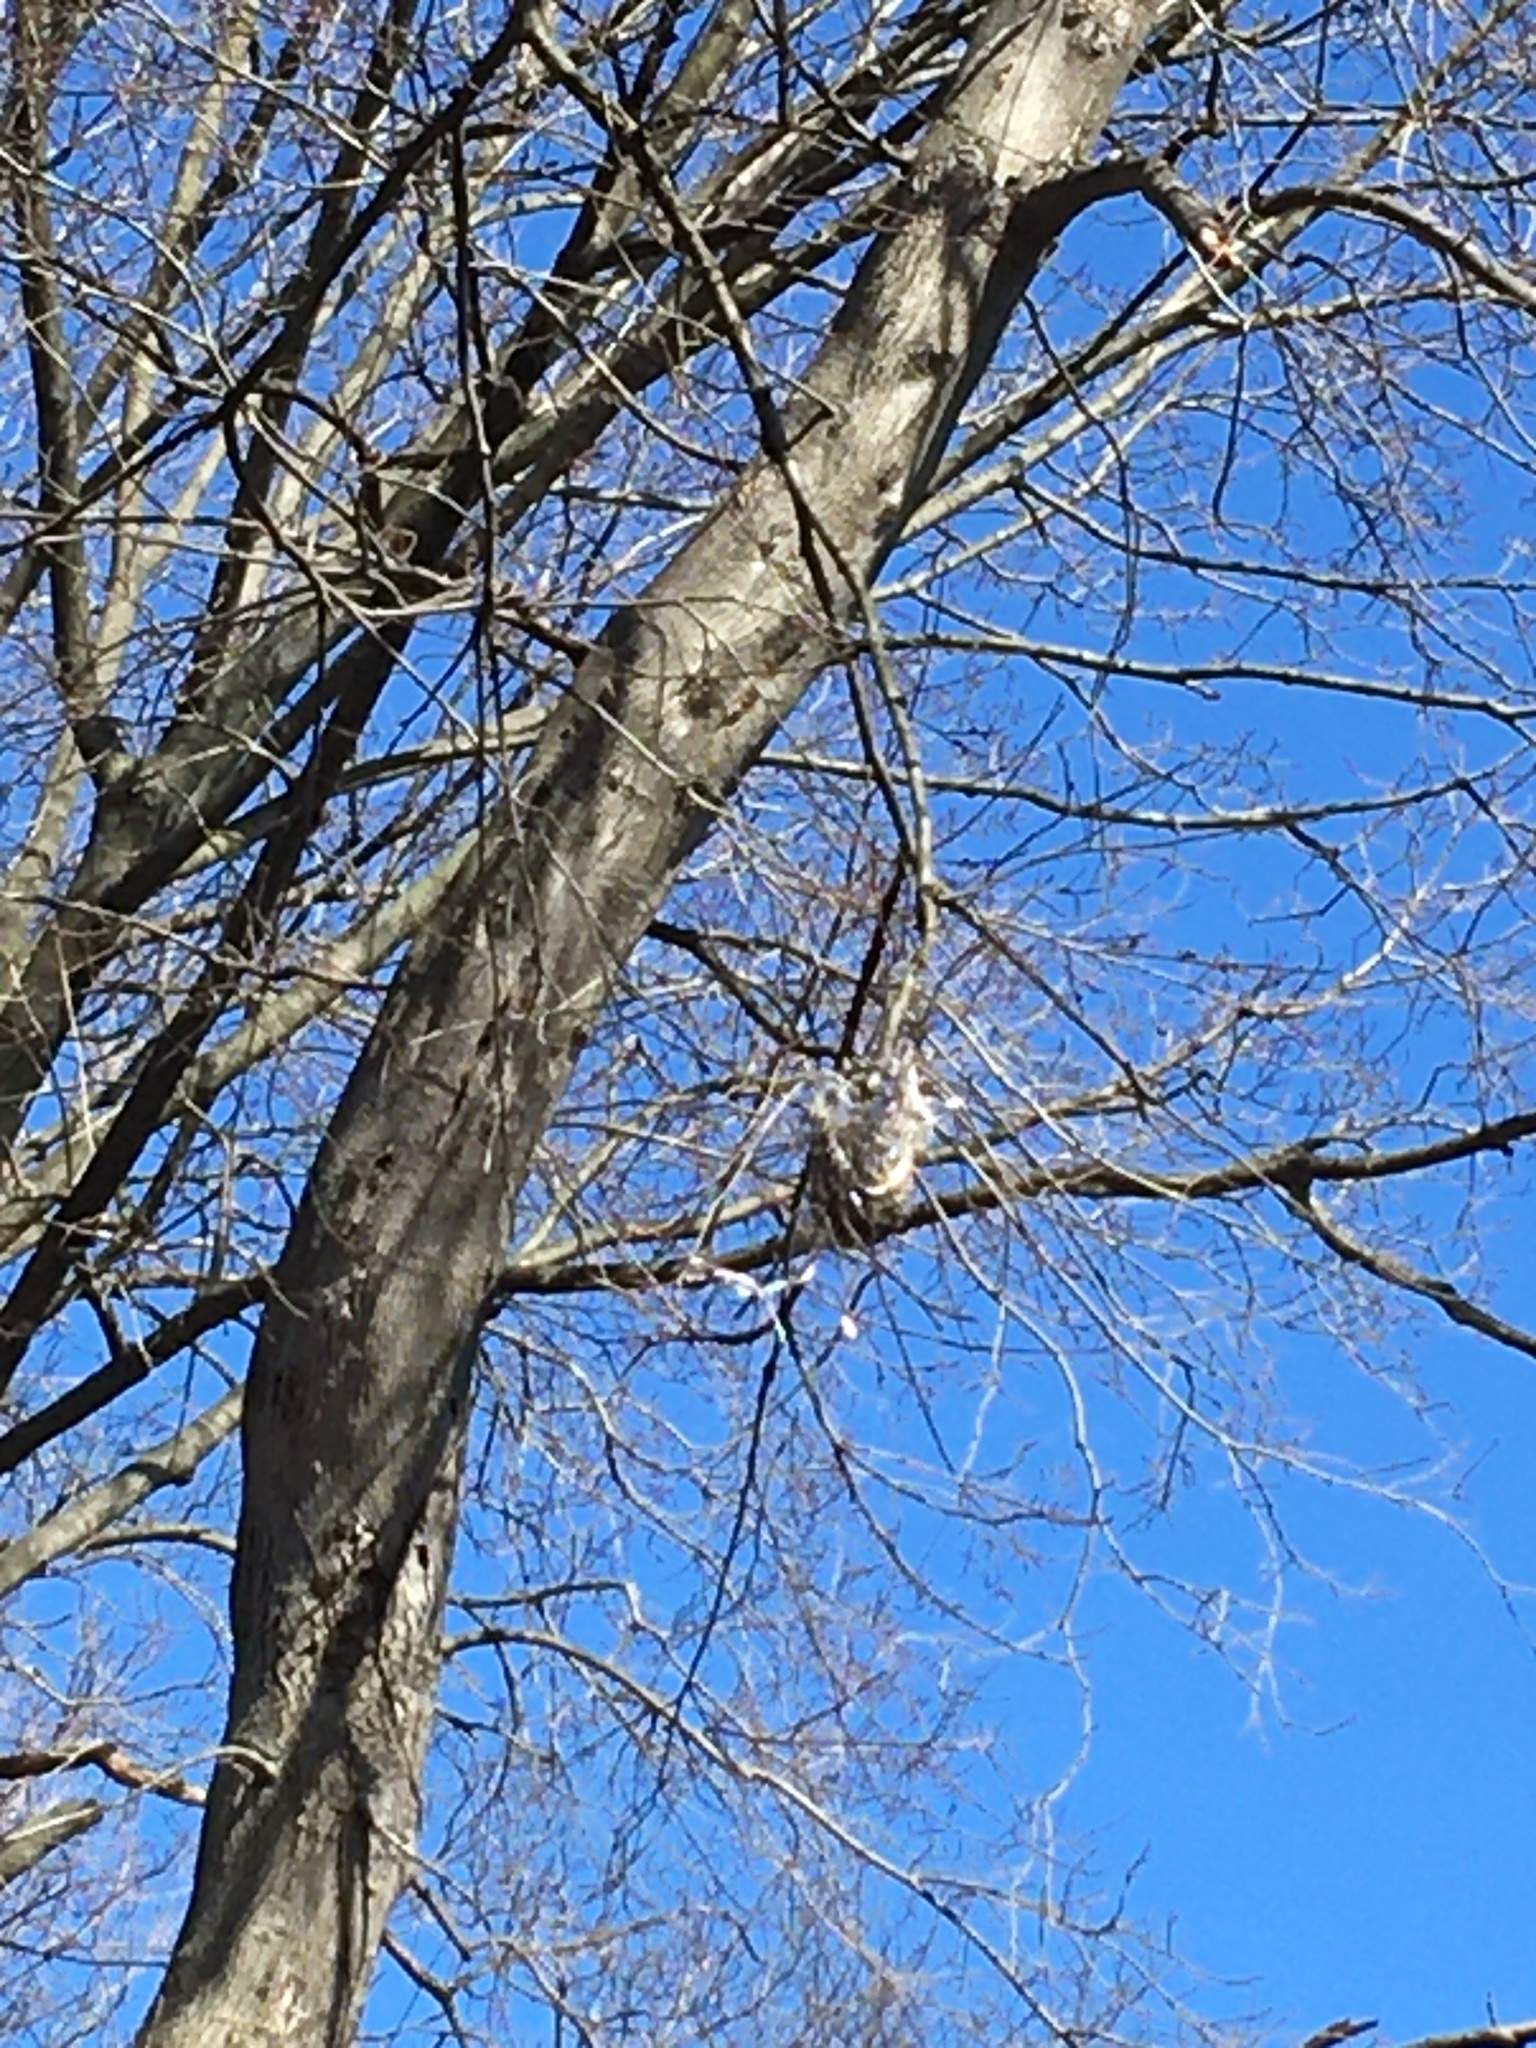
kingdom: Animalia
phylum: Chordata
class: Aves
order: Passeriformes
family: Icteridae
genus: Icterus
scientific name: Icterus galbula
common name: Baltimore oriole
